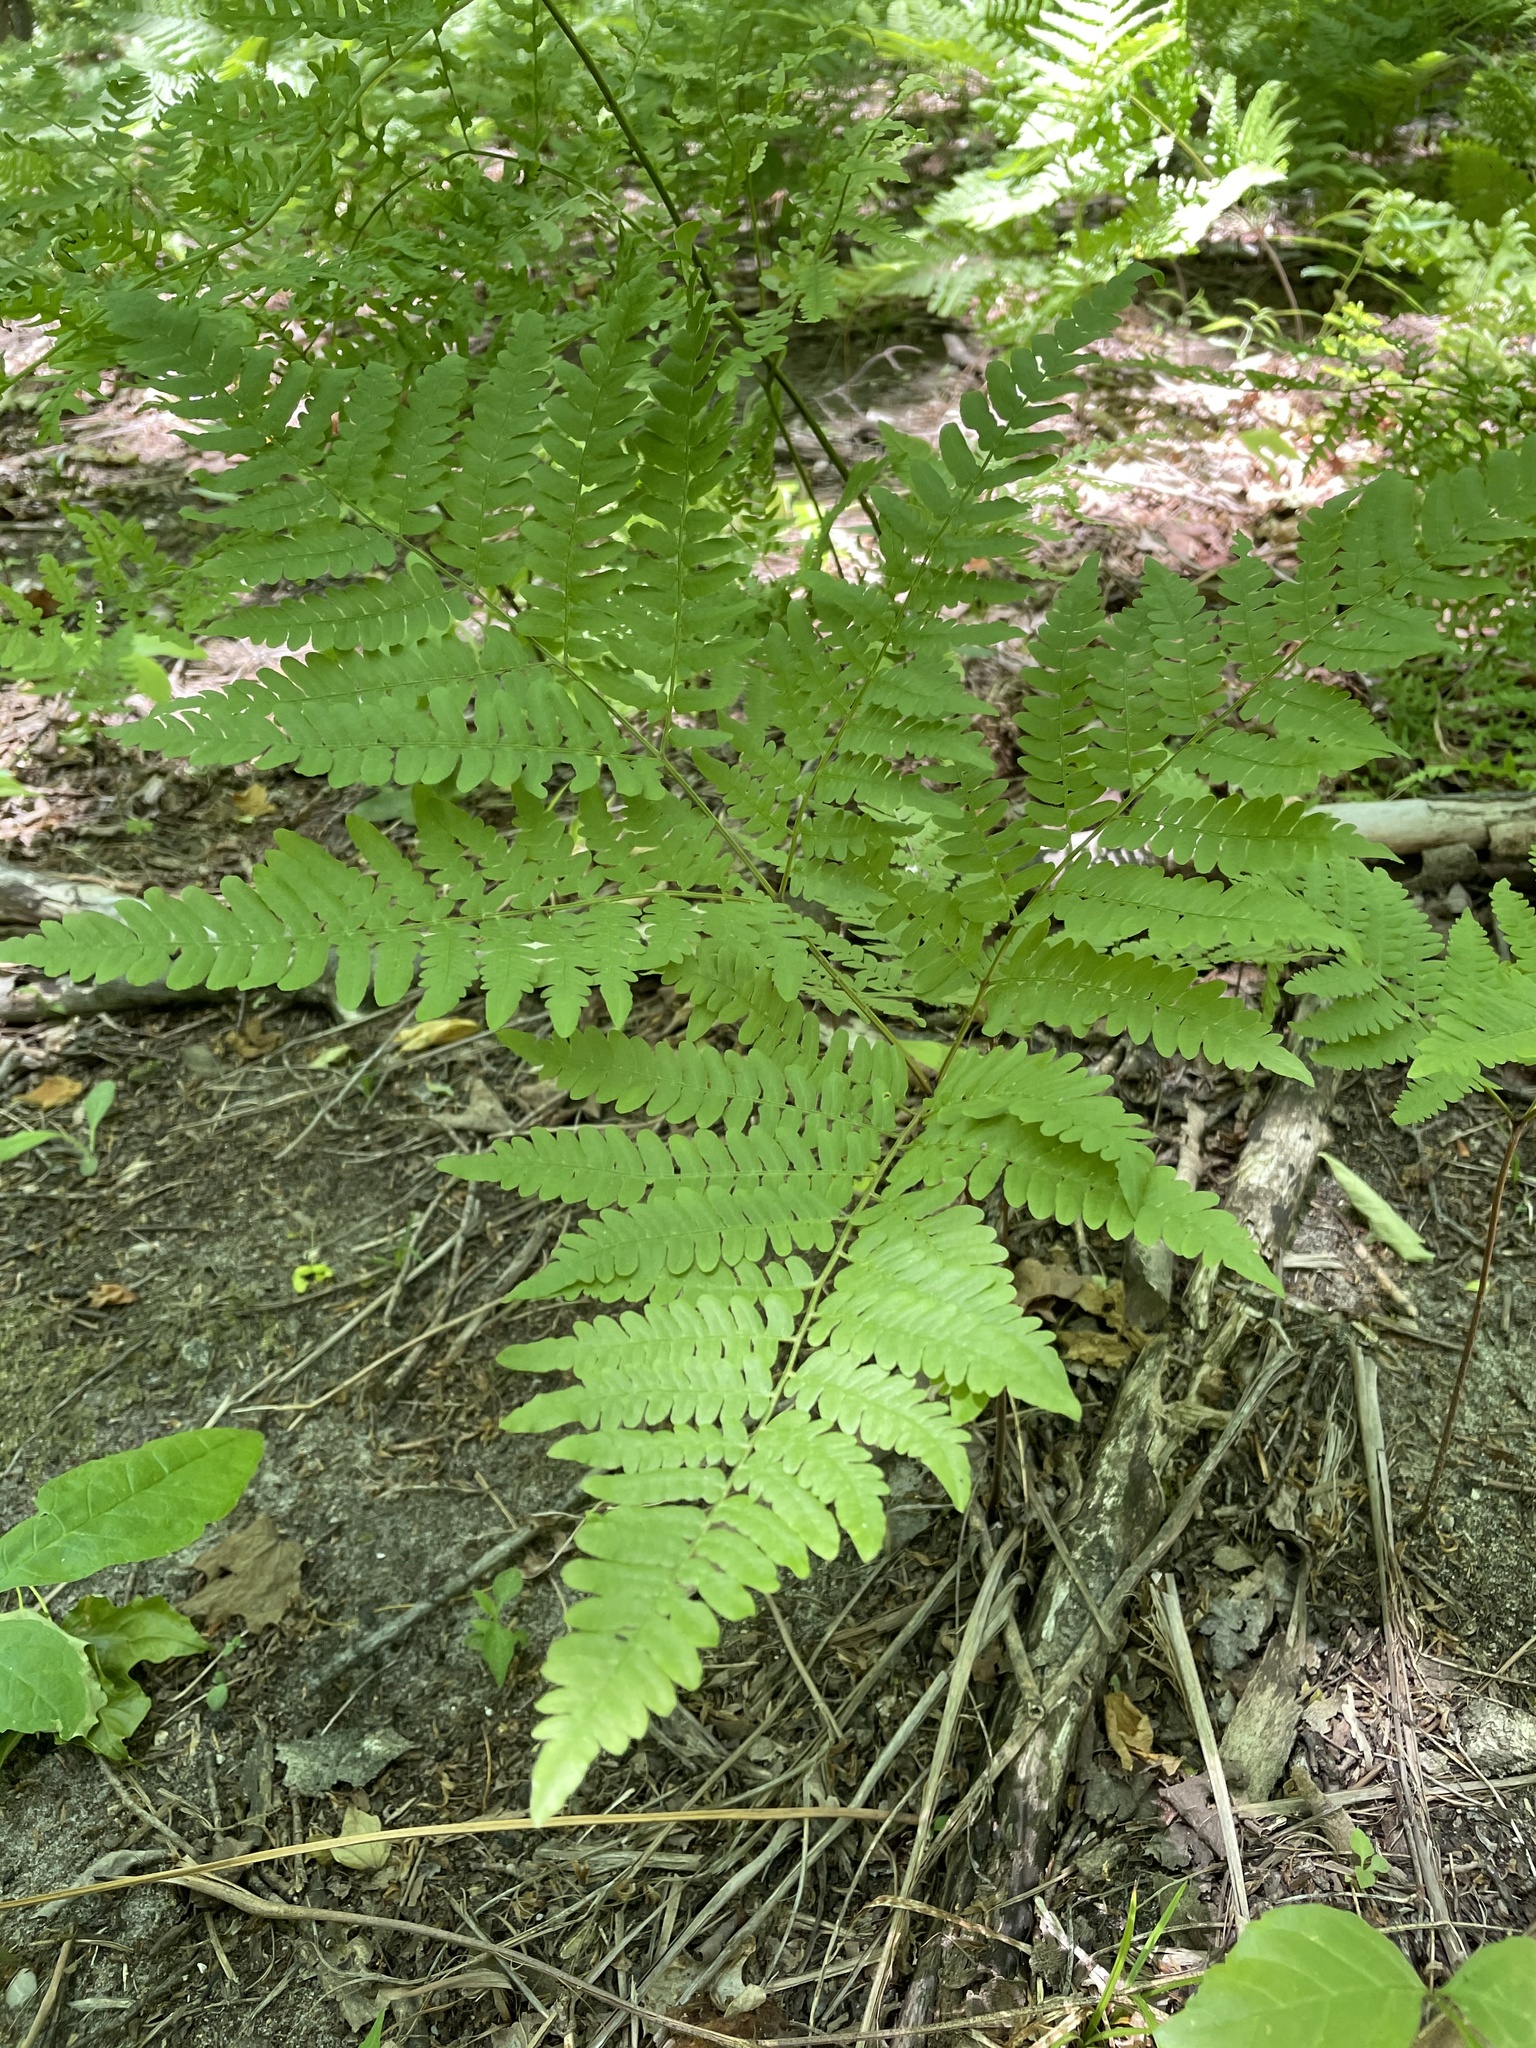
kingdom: Plantae
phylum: Tracheophyta
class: Polypodiopsida
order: Polypodiales
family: Dennstaedtiaceae
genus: Pteridium
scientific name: Pteridium aquilinum
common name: Bracken
